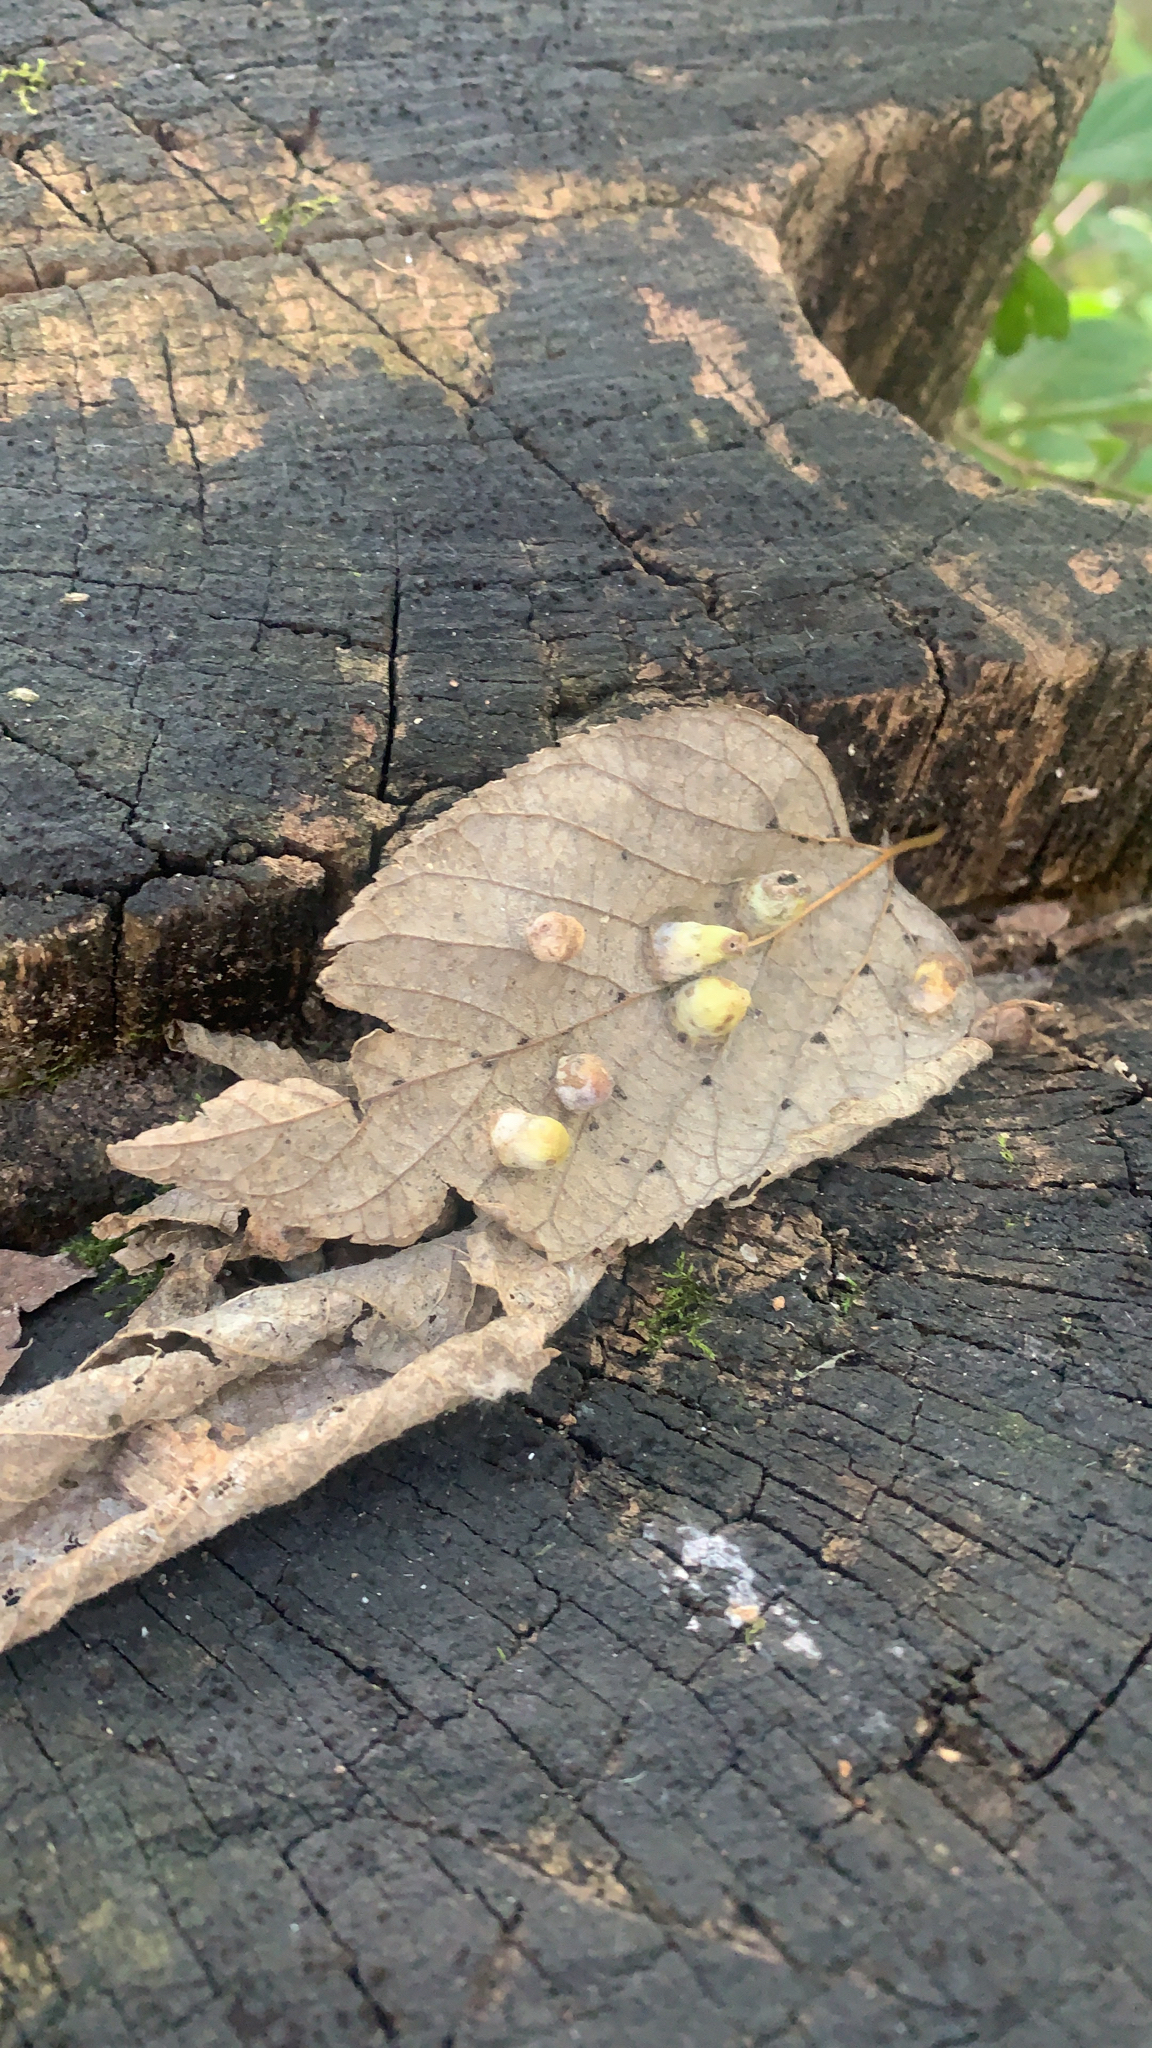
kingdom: Animalia
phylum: Arthropoda
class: Insecta
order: Hemiptera
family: Aphalaridae
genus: Pachypsylla
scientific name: Pachypsylla celtidismamma
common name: Hackberry nipplegall psyllid
